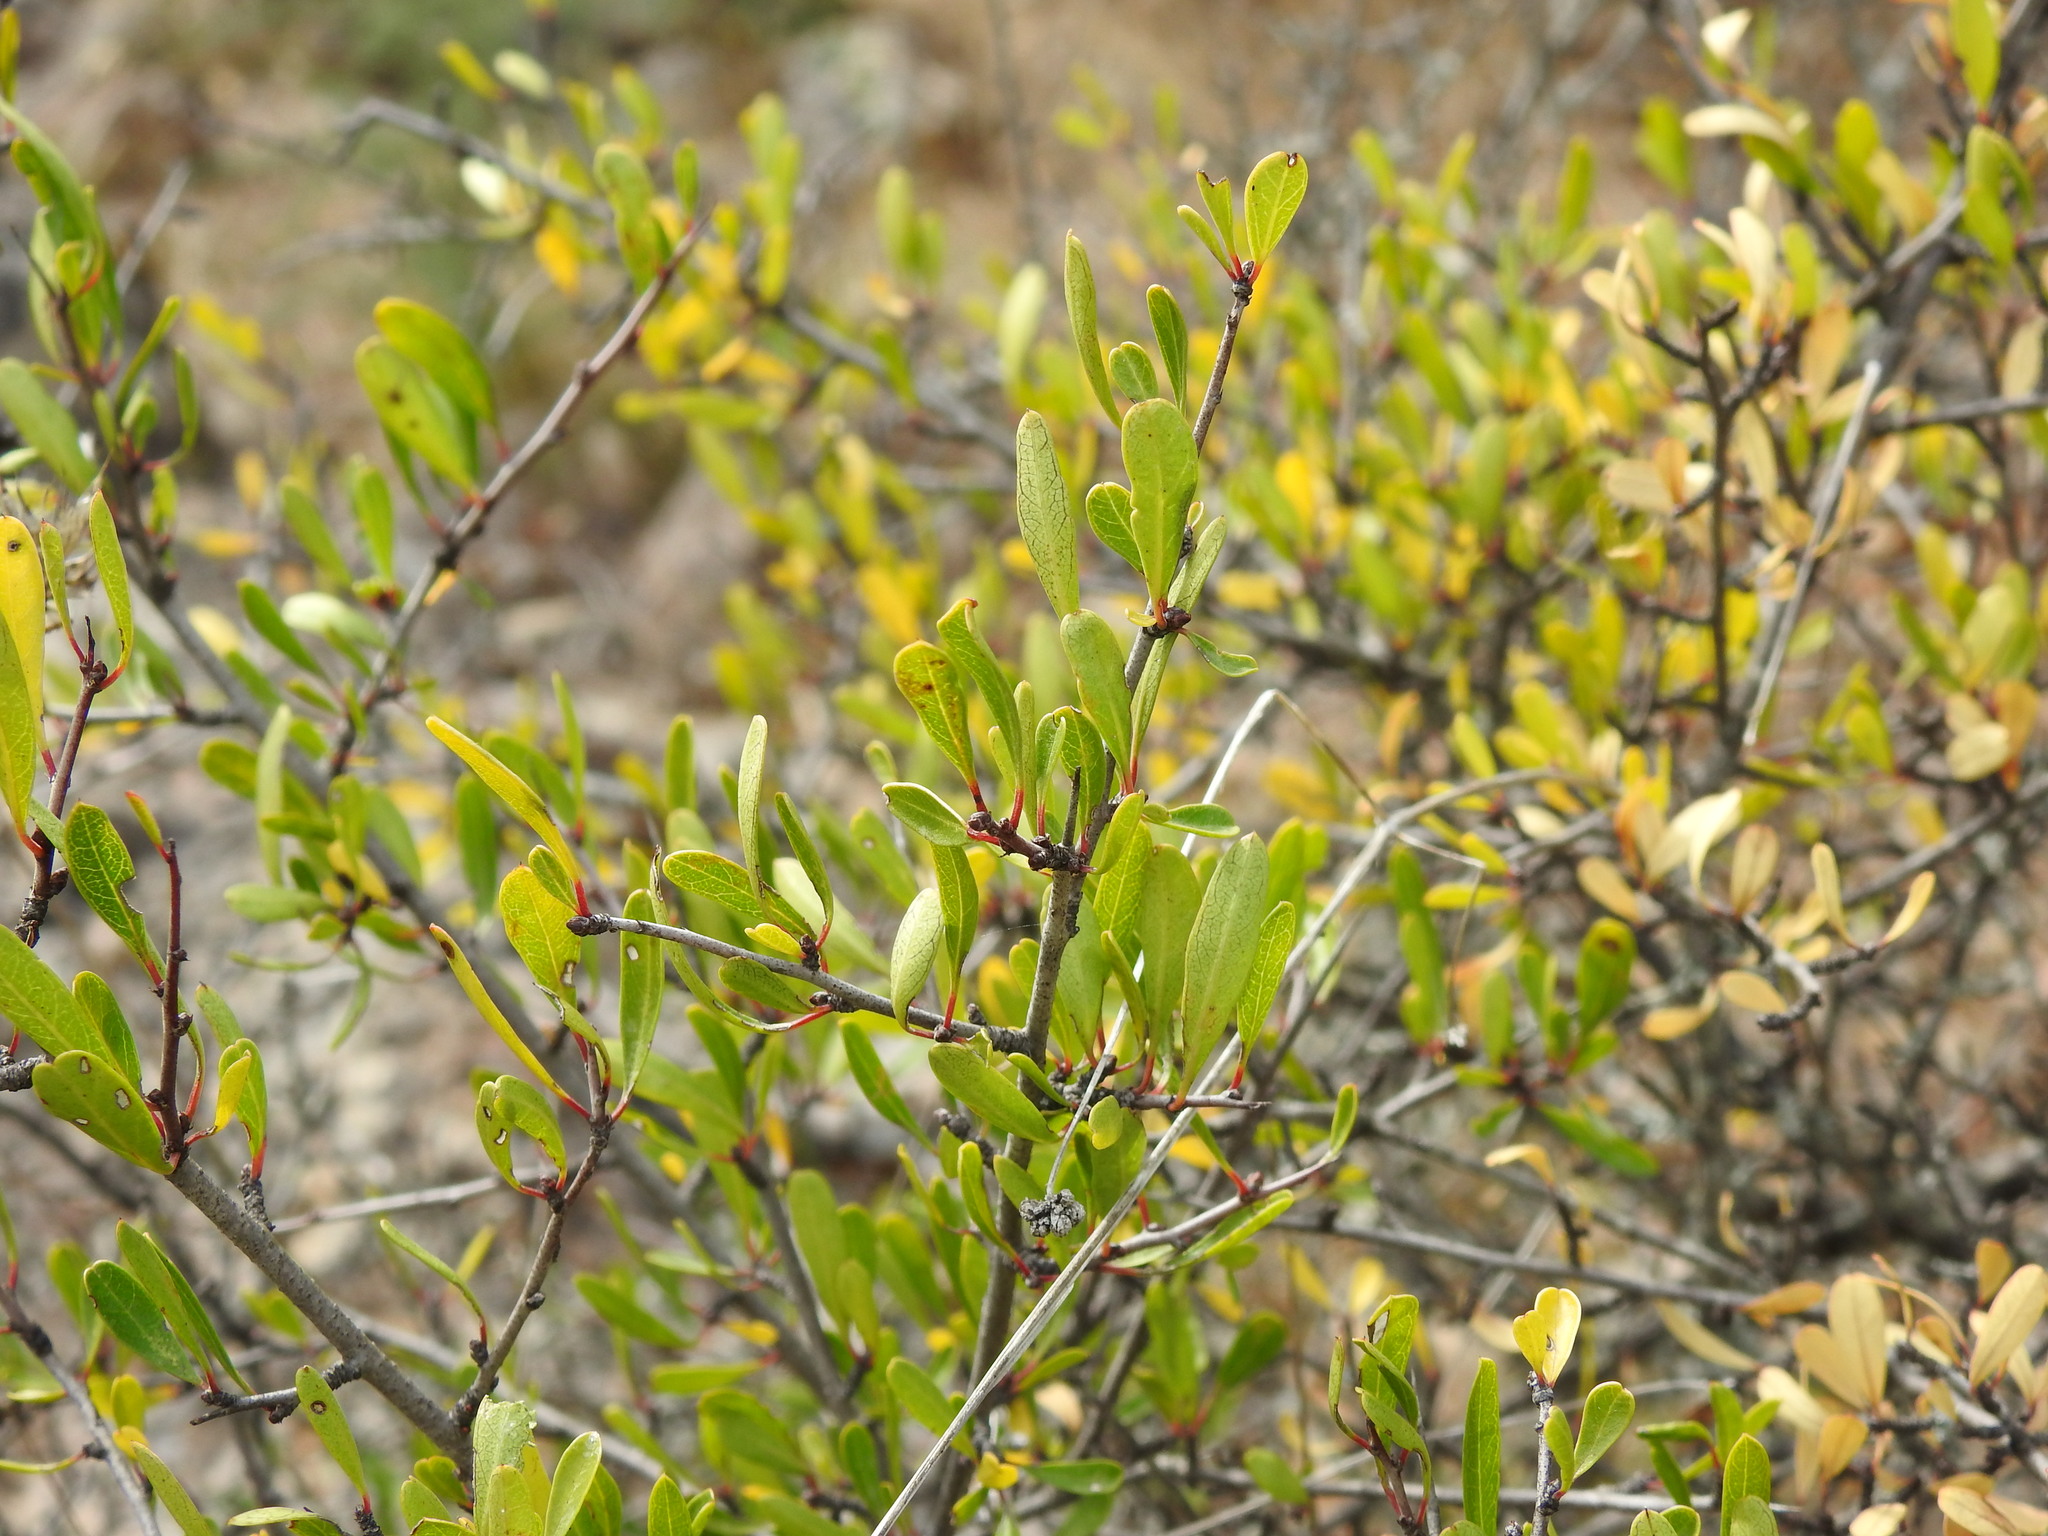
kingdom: Plantae
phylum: Tracheophyta
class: Magnoliopsida
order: Rosales
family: Rhamnaceae
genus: Rhamnus
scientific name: Rhamnus oleoides
